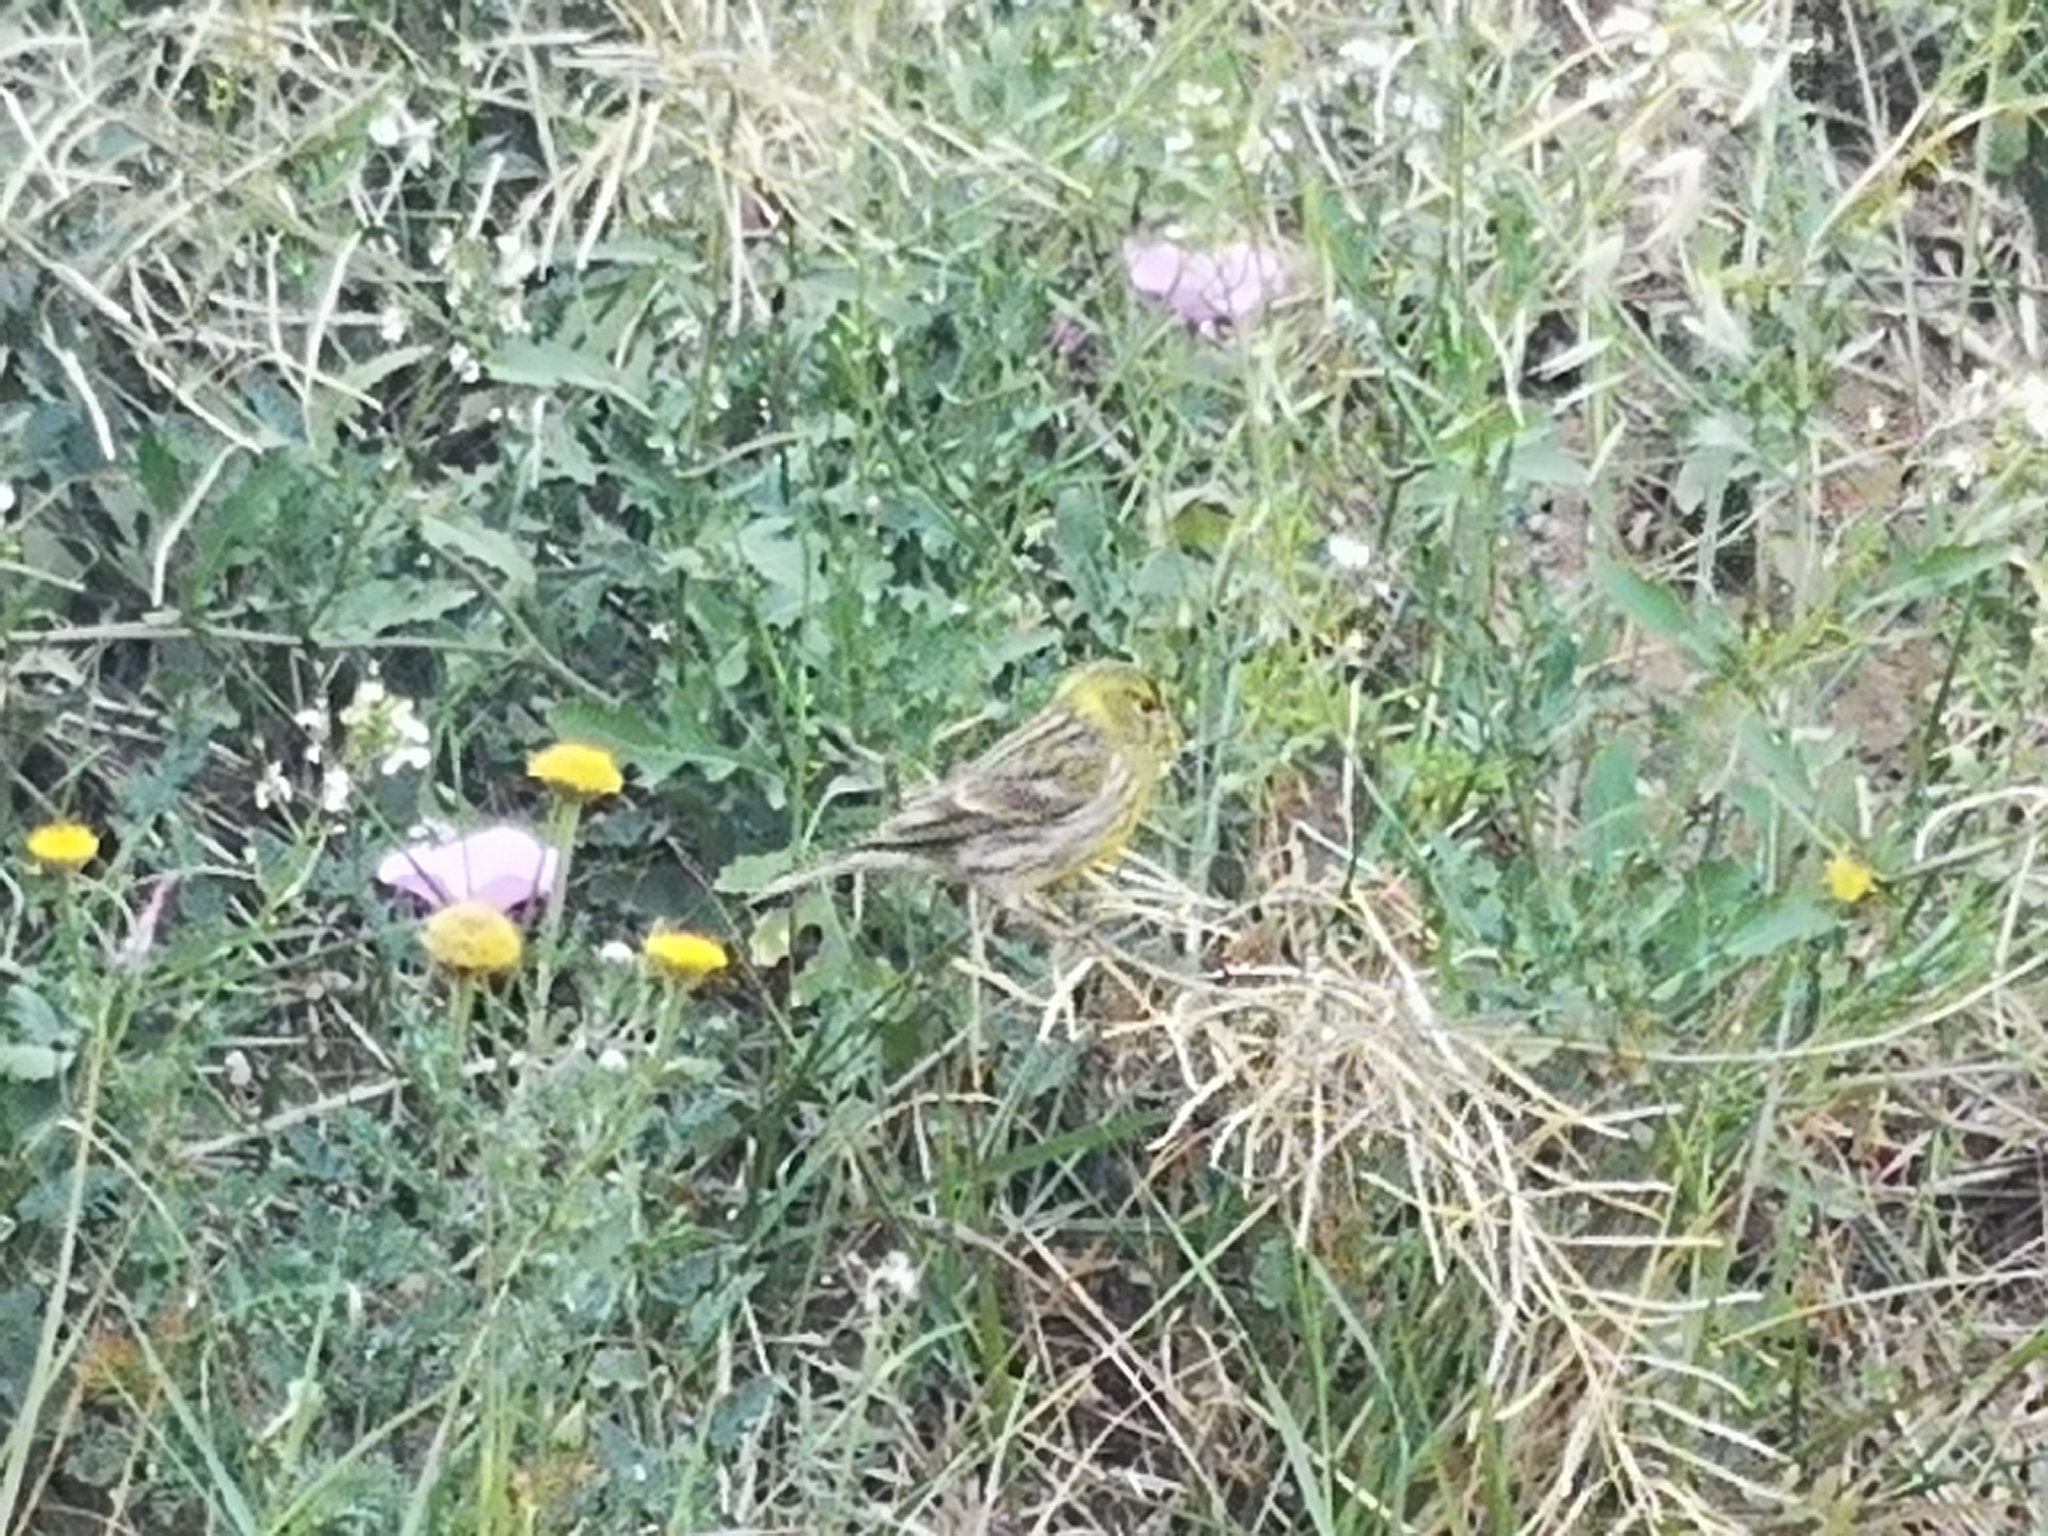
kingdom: Animalia
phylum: Chordata
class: Aves
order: Passeriformes
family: Fringillidae
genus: Serinus
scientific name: Serinus serinus
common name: European serin
